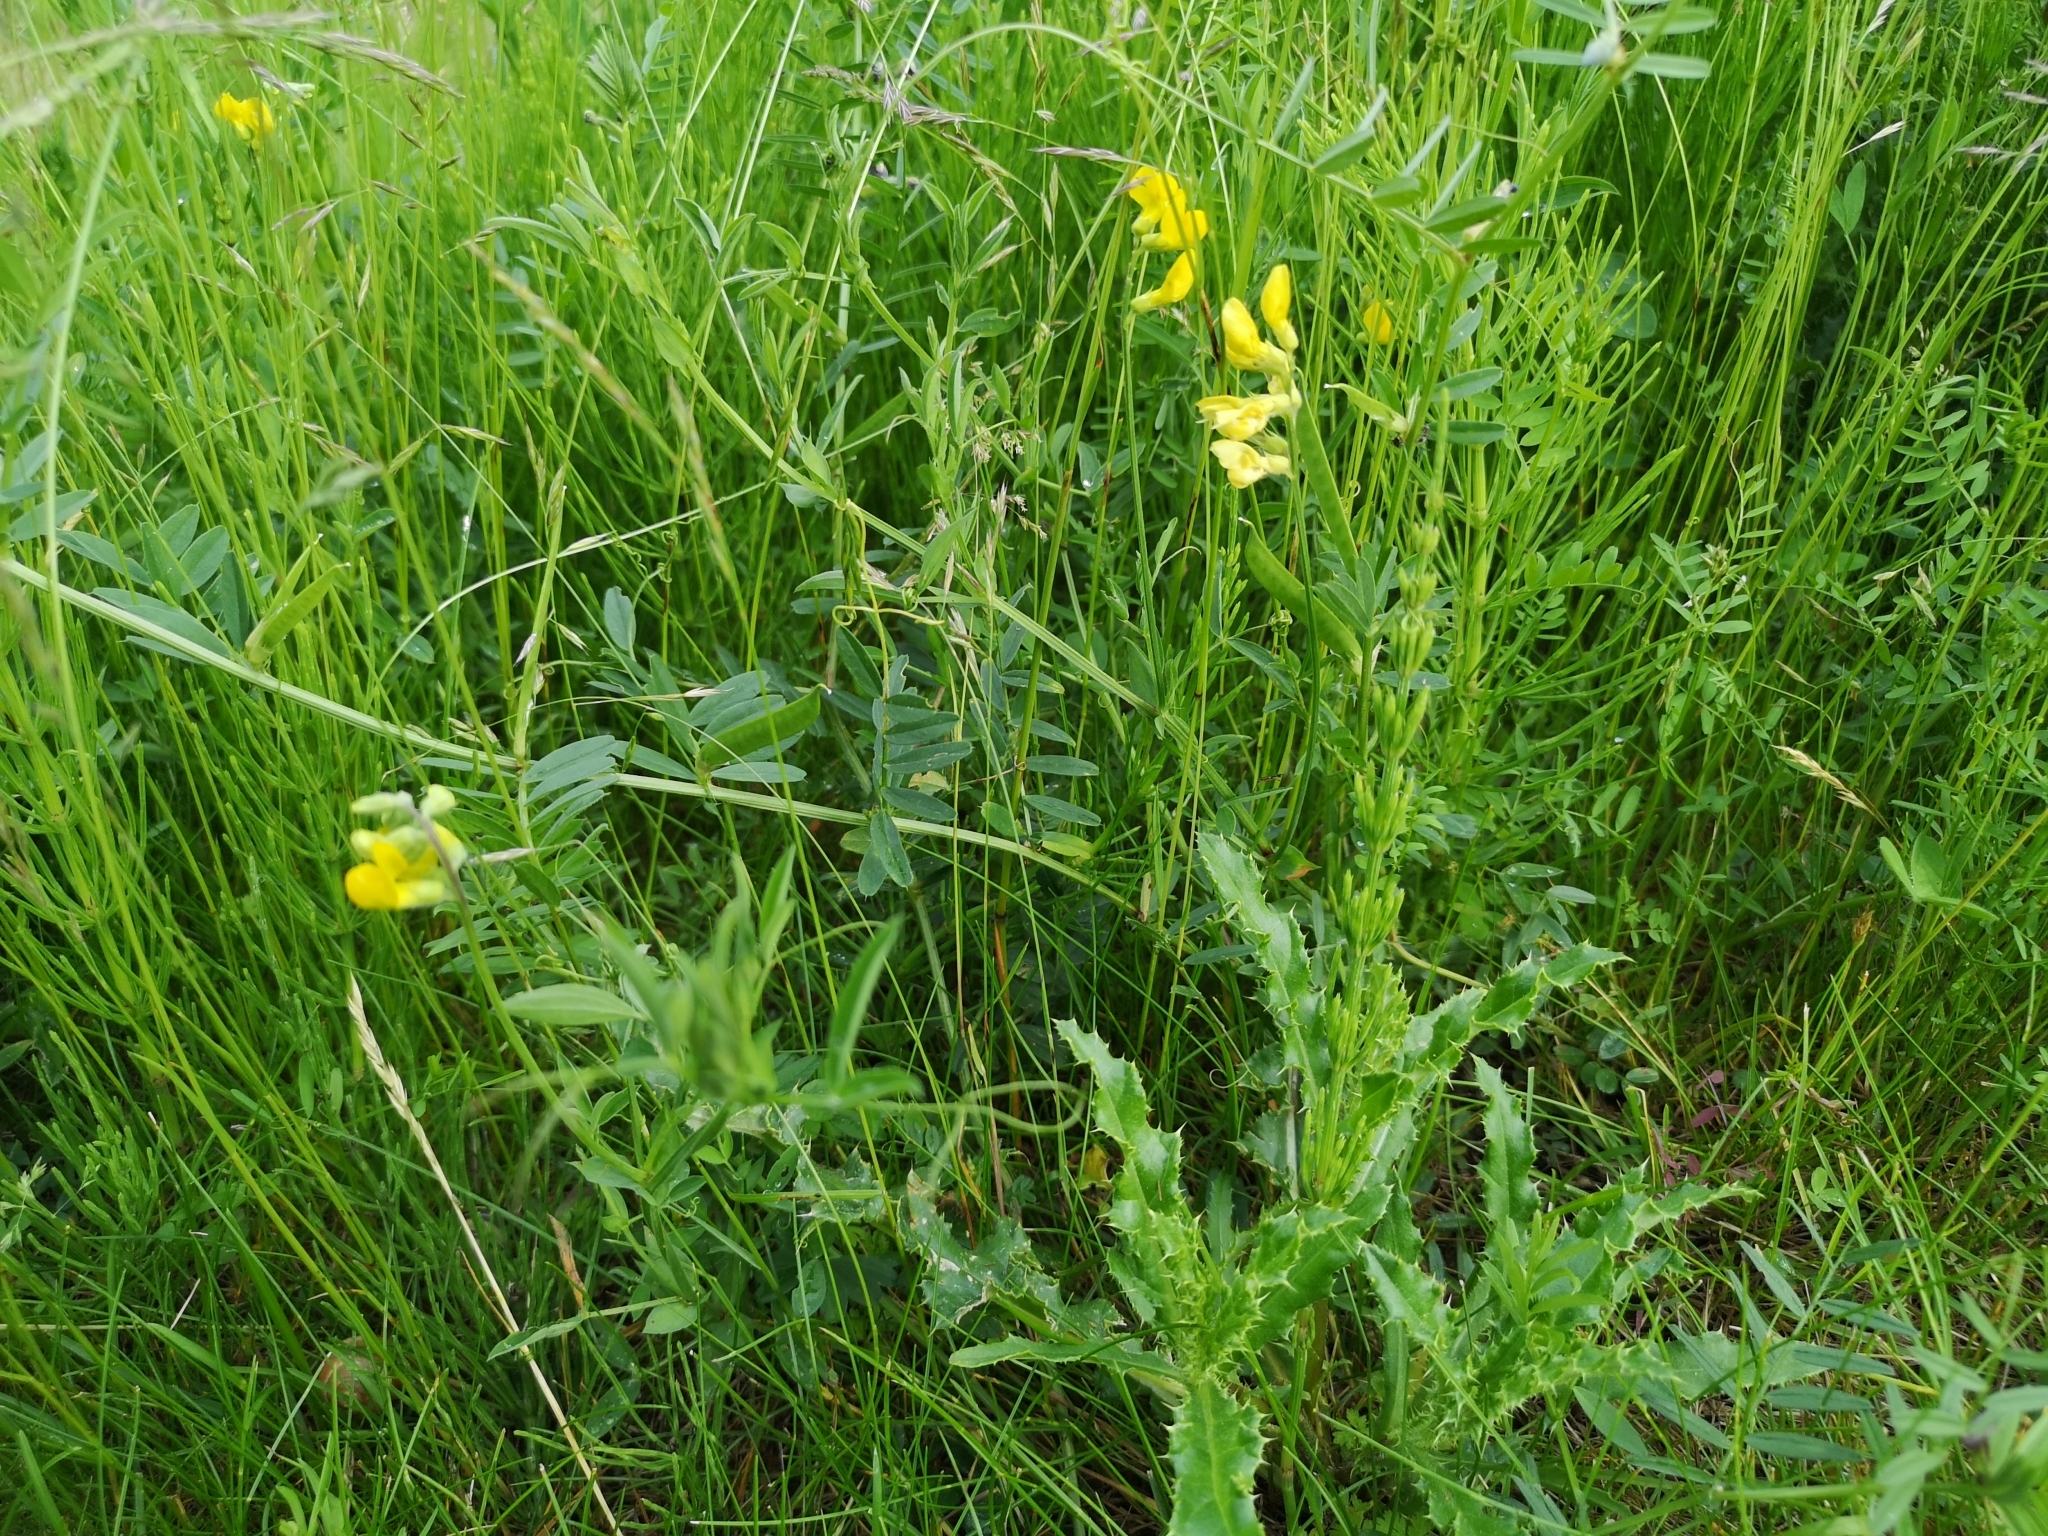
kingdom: Plantae
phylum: Tracheophyta
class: Magnoliopsida
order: Fabales
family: Fabaceae
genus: Lathyrus
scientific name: Lathyrus pratensis
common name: Meadow vetchling
